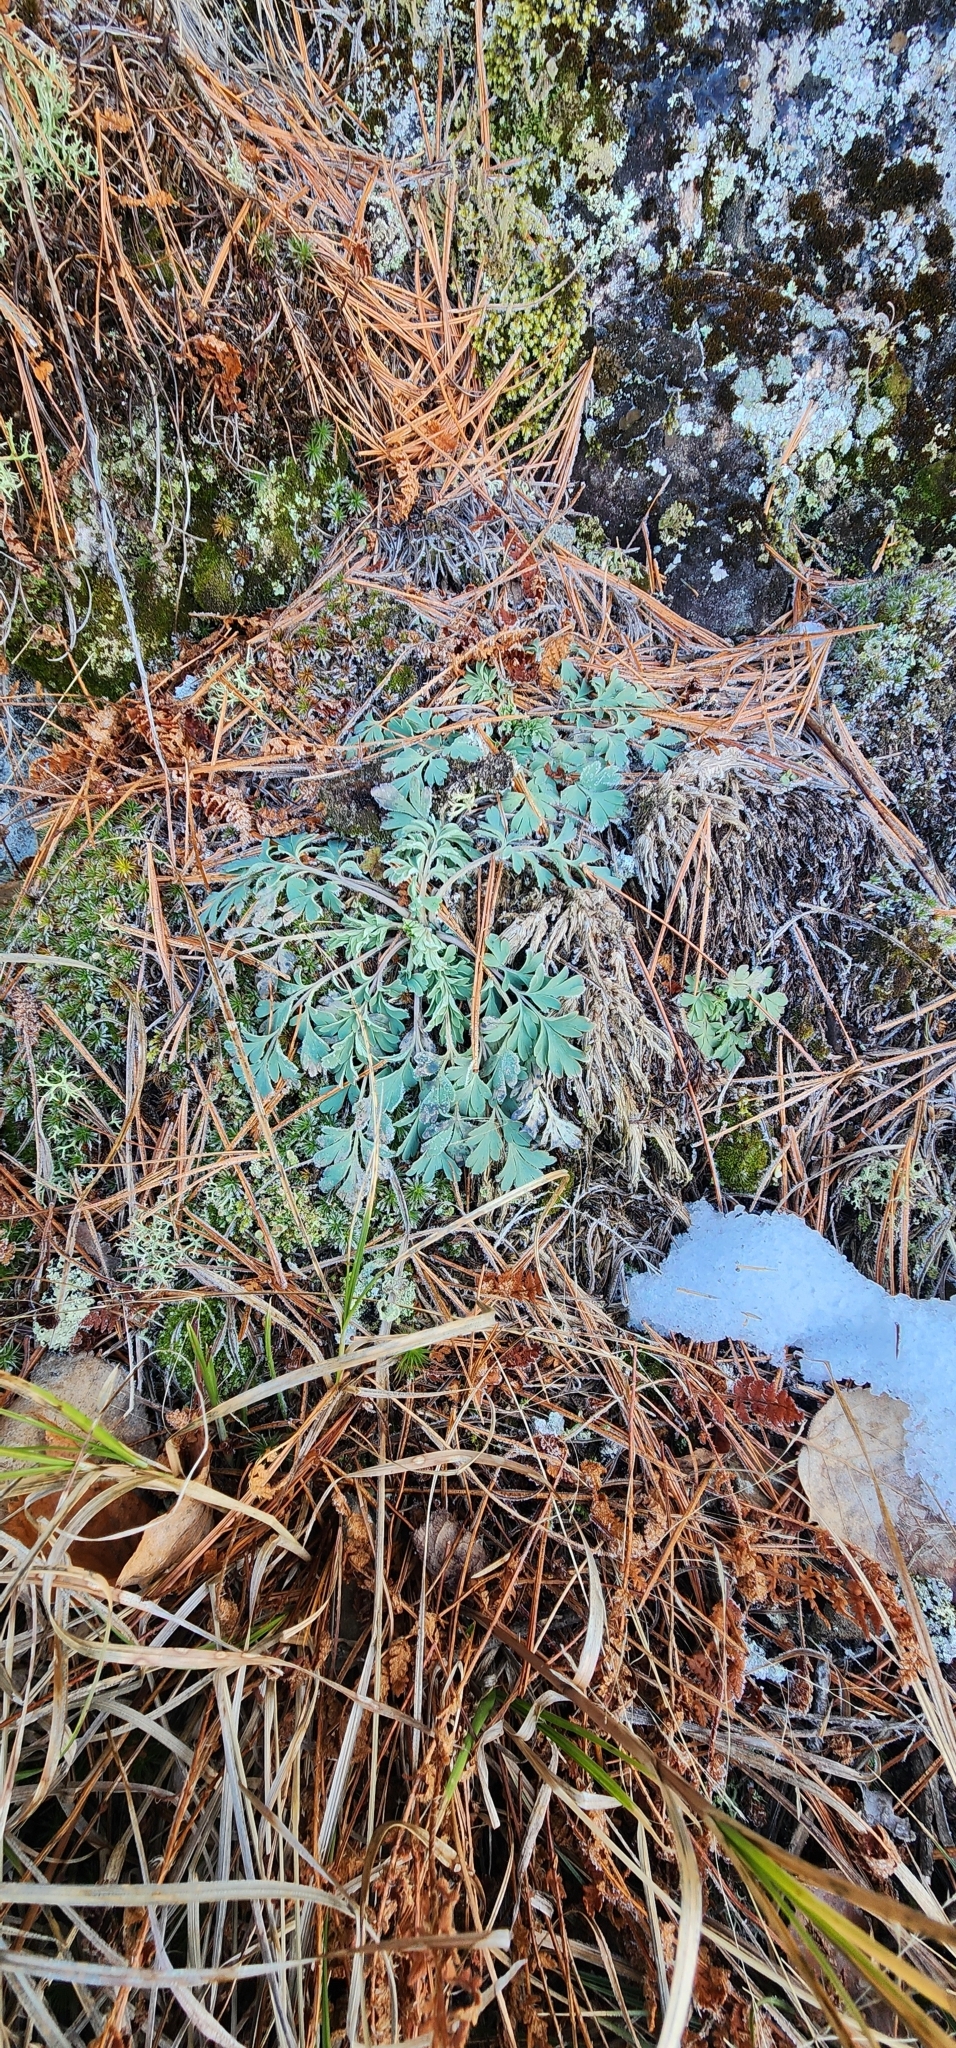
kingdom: Plantae
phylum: Tracheophyta
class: Magnoliopsida
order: Ranunculales
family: Papaveraceae
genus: Capnoides
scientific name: Capnoides sempervirens
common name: Rock harlequin
